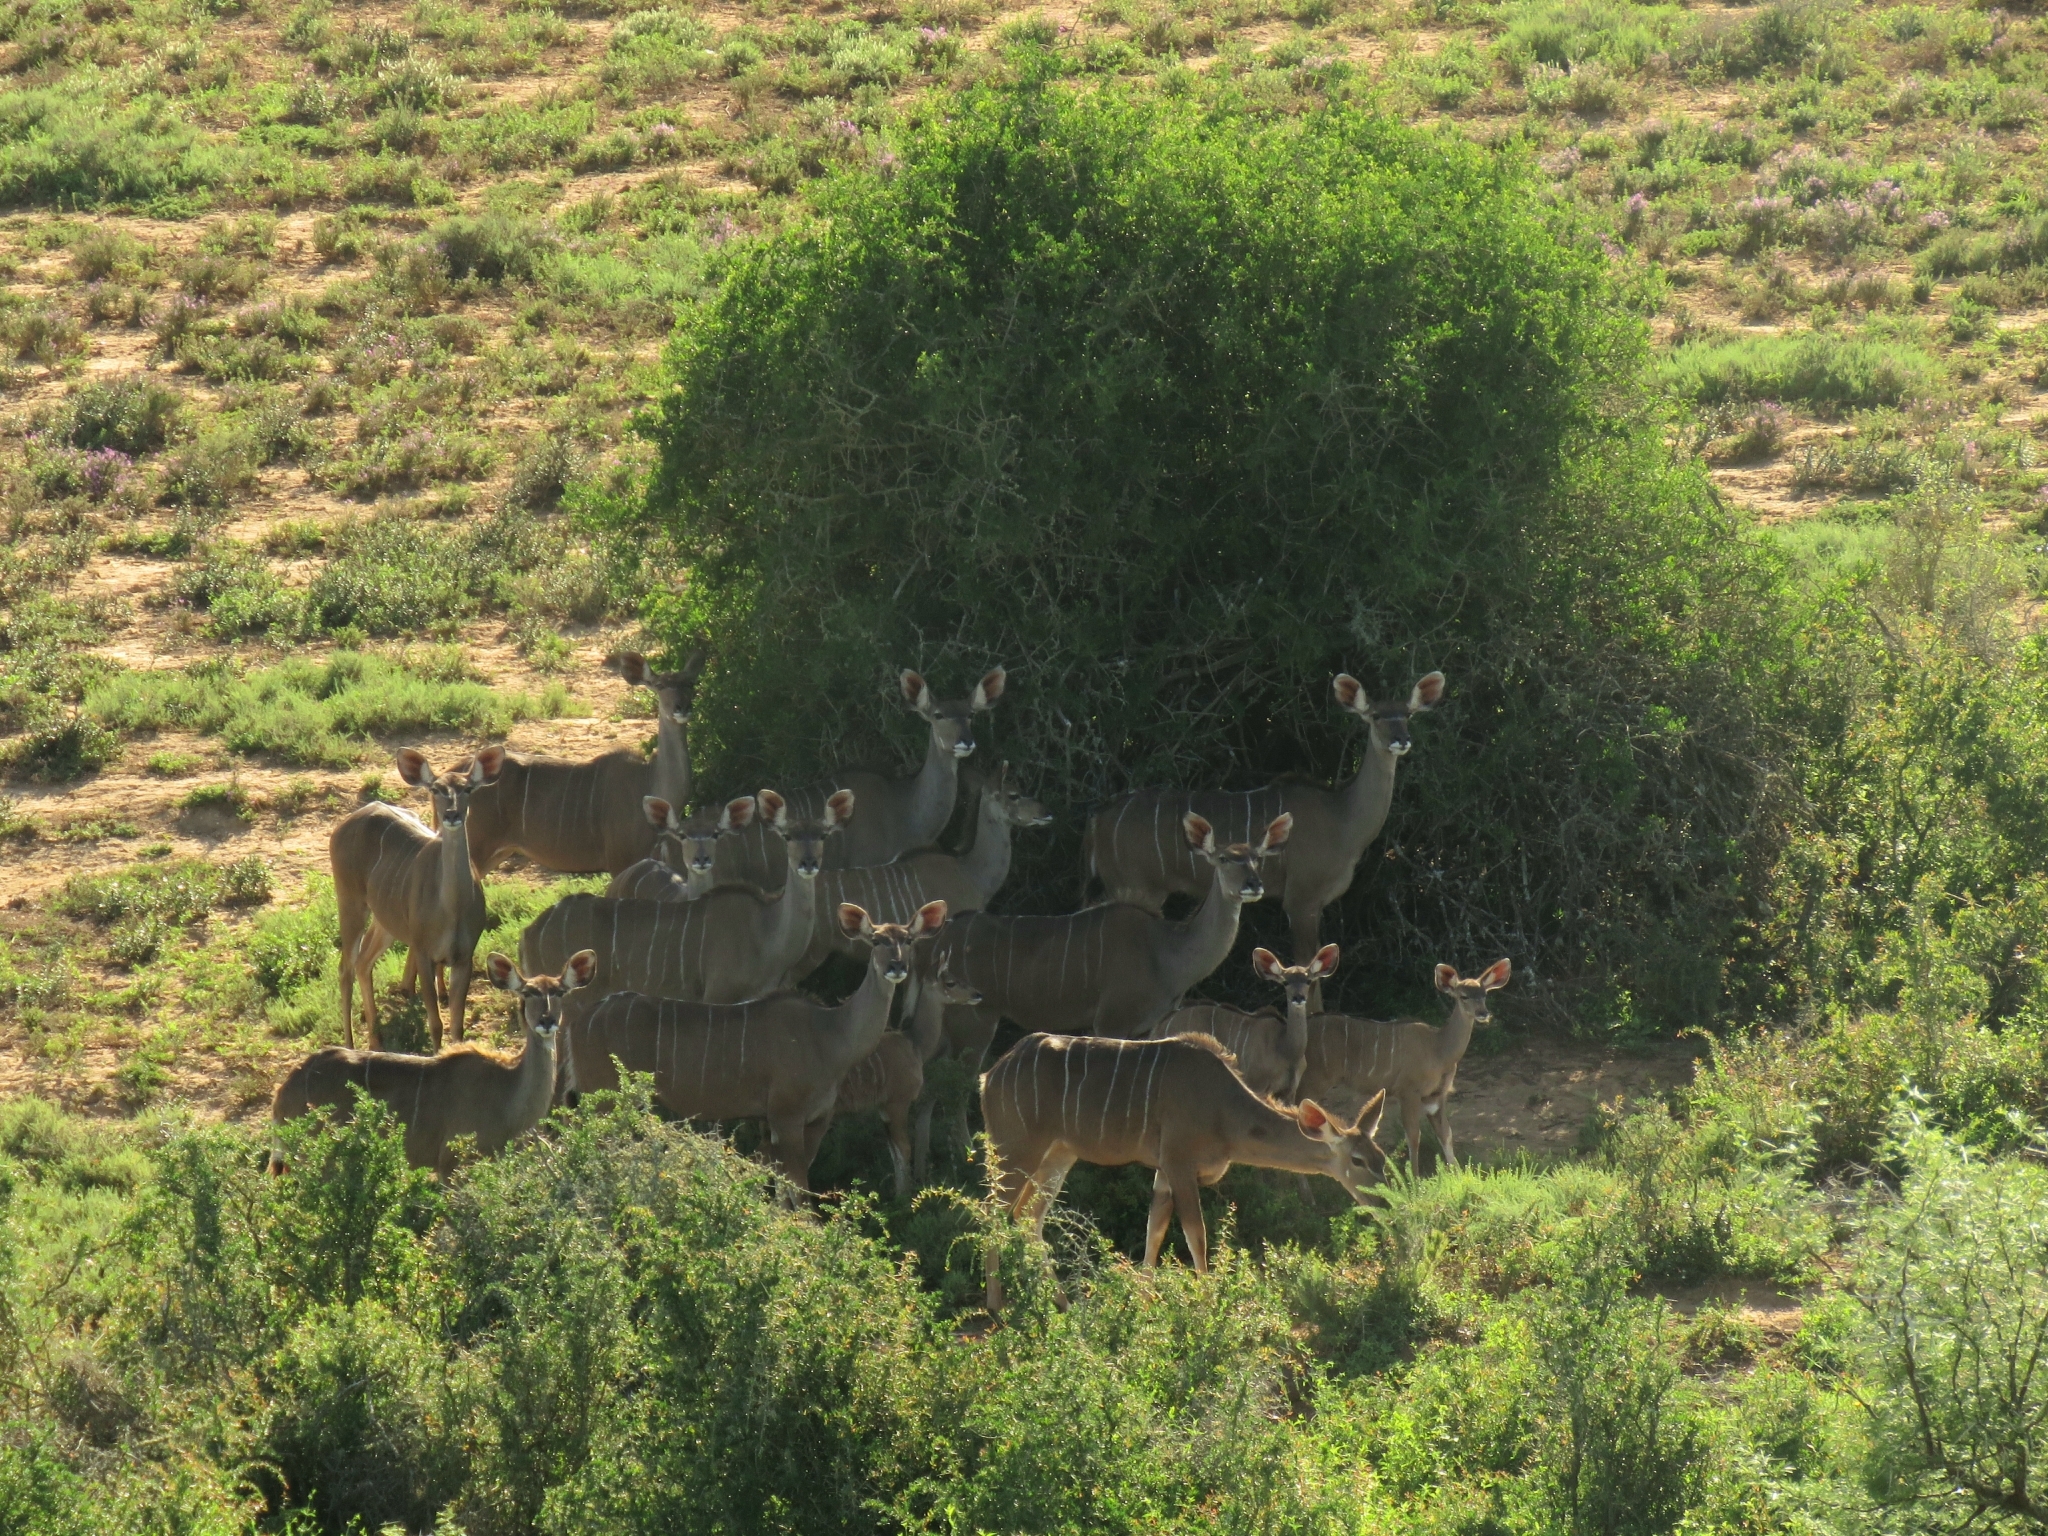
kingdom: Animalia
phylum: Chordata
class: Mammalia
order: Artiodactyla
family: Bovidae
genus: Tragelaphus
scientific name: Tragelaphus strepsiceros
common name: Greater kudu
